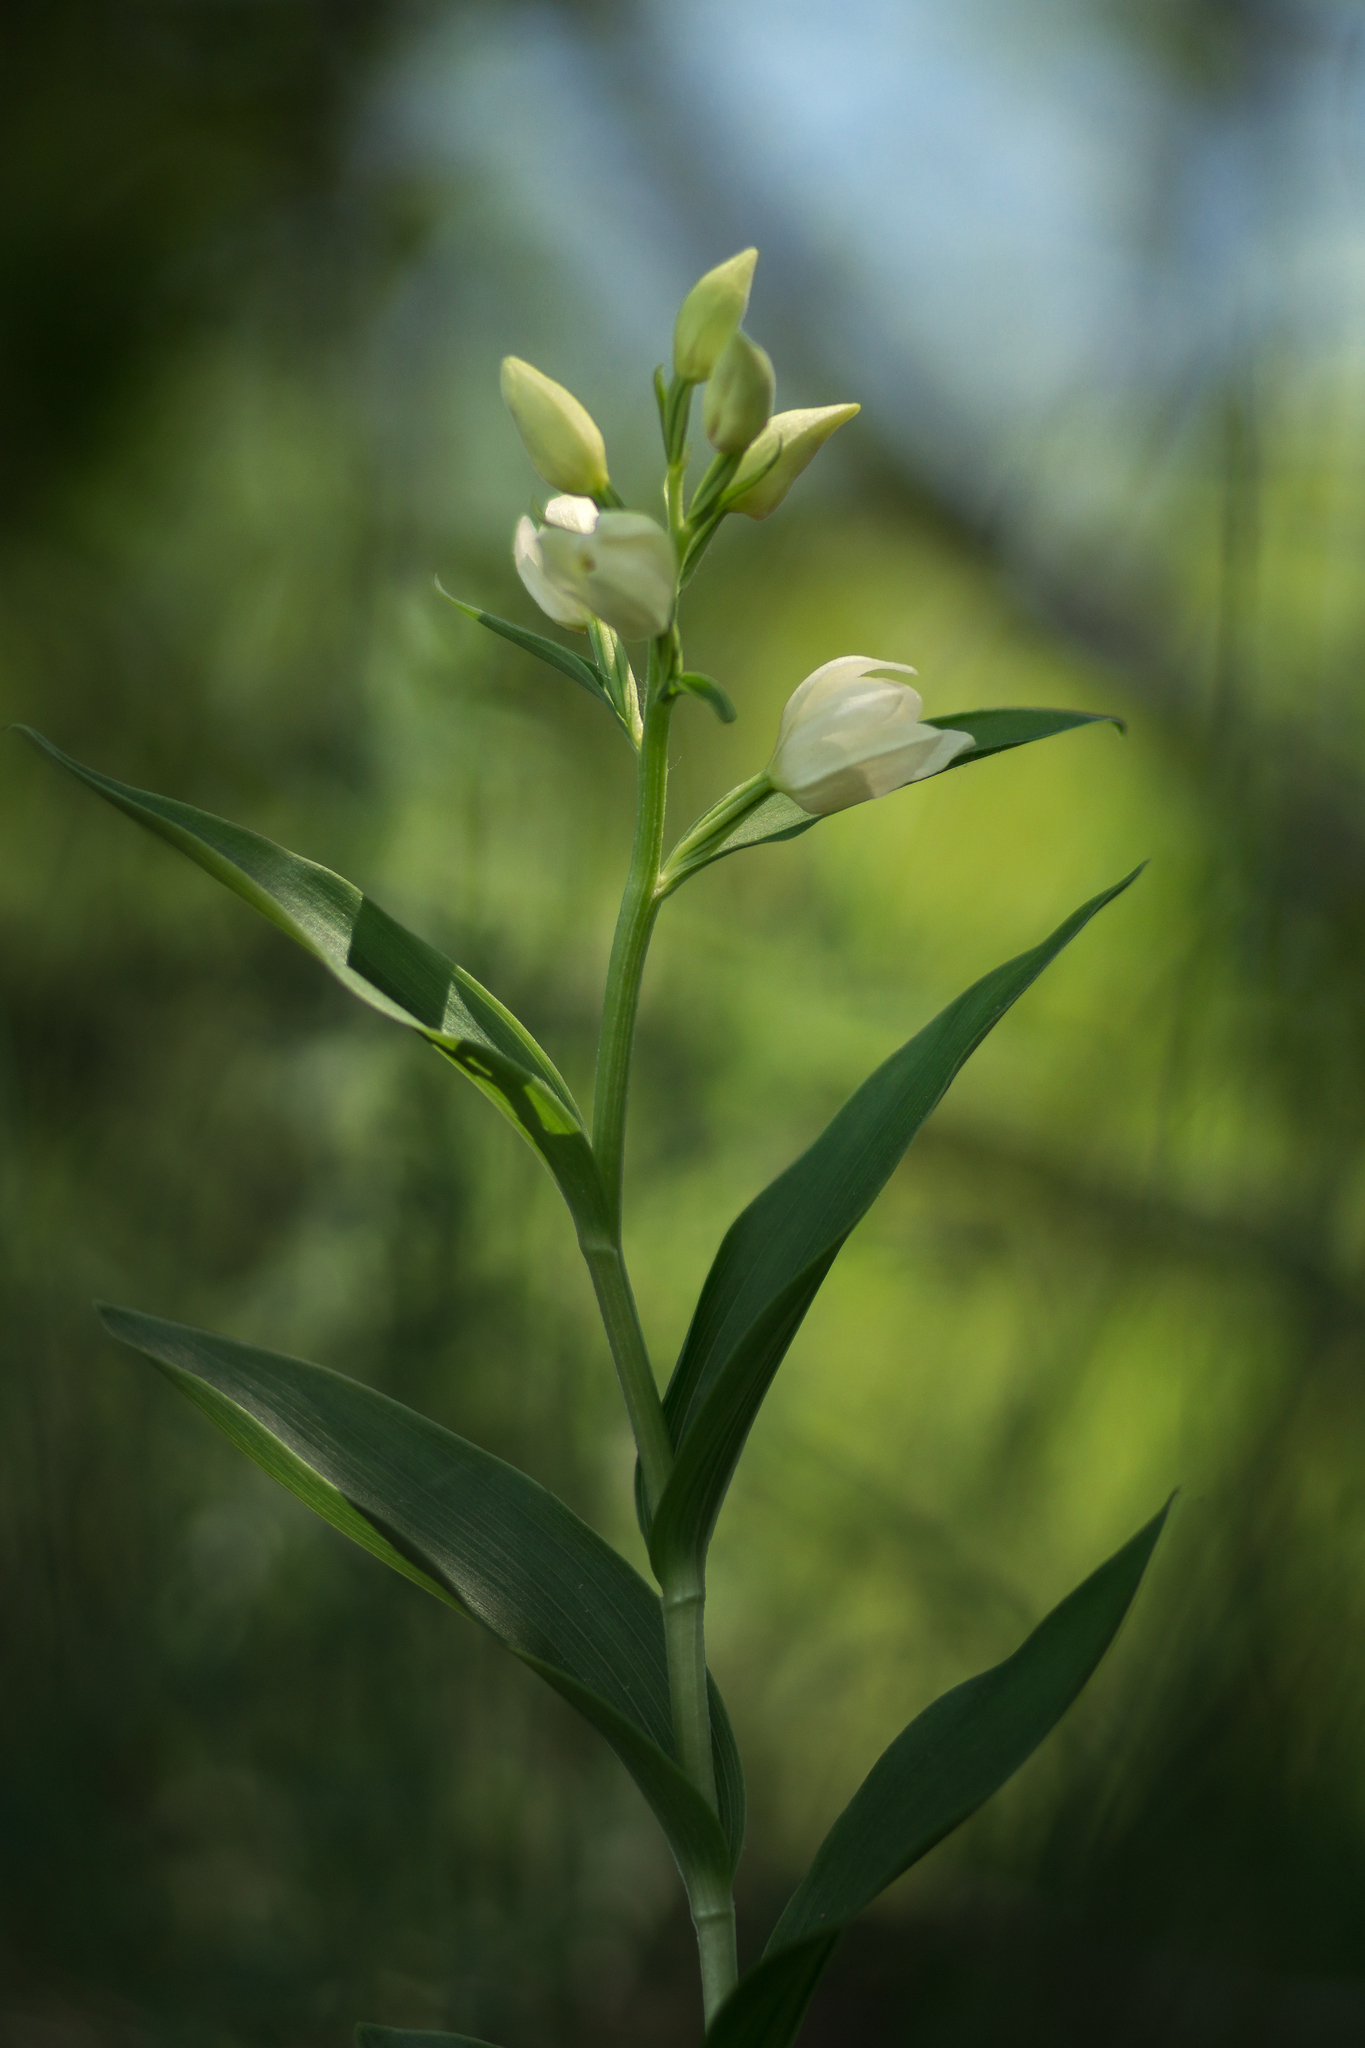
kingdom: Plantae
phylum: Tracheophyta
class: Liliopsida
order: Asparagales
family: Orchidaceae
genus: Cephalanthera
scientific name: Cephalanthera damasonium
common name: White helleborine
